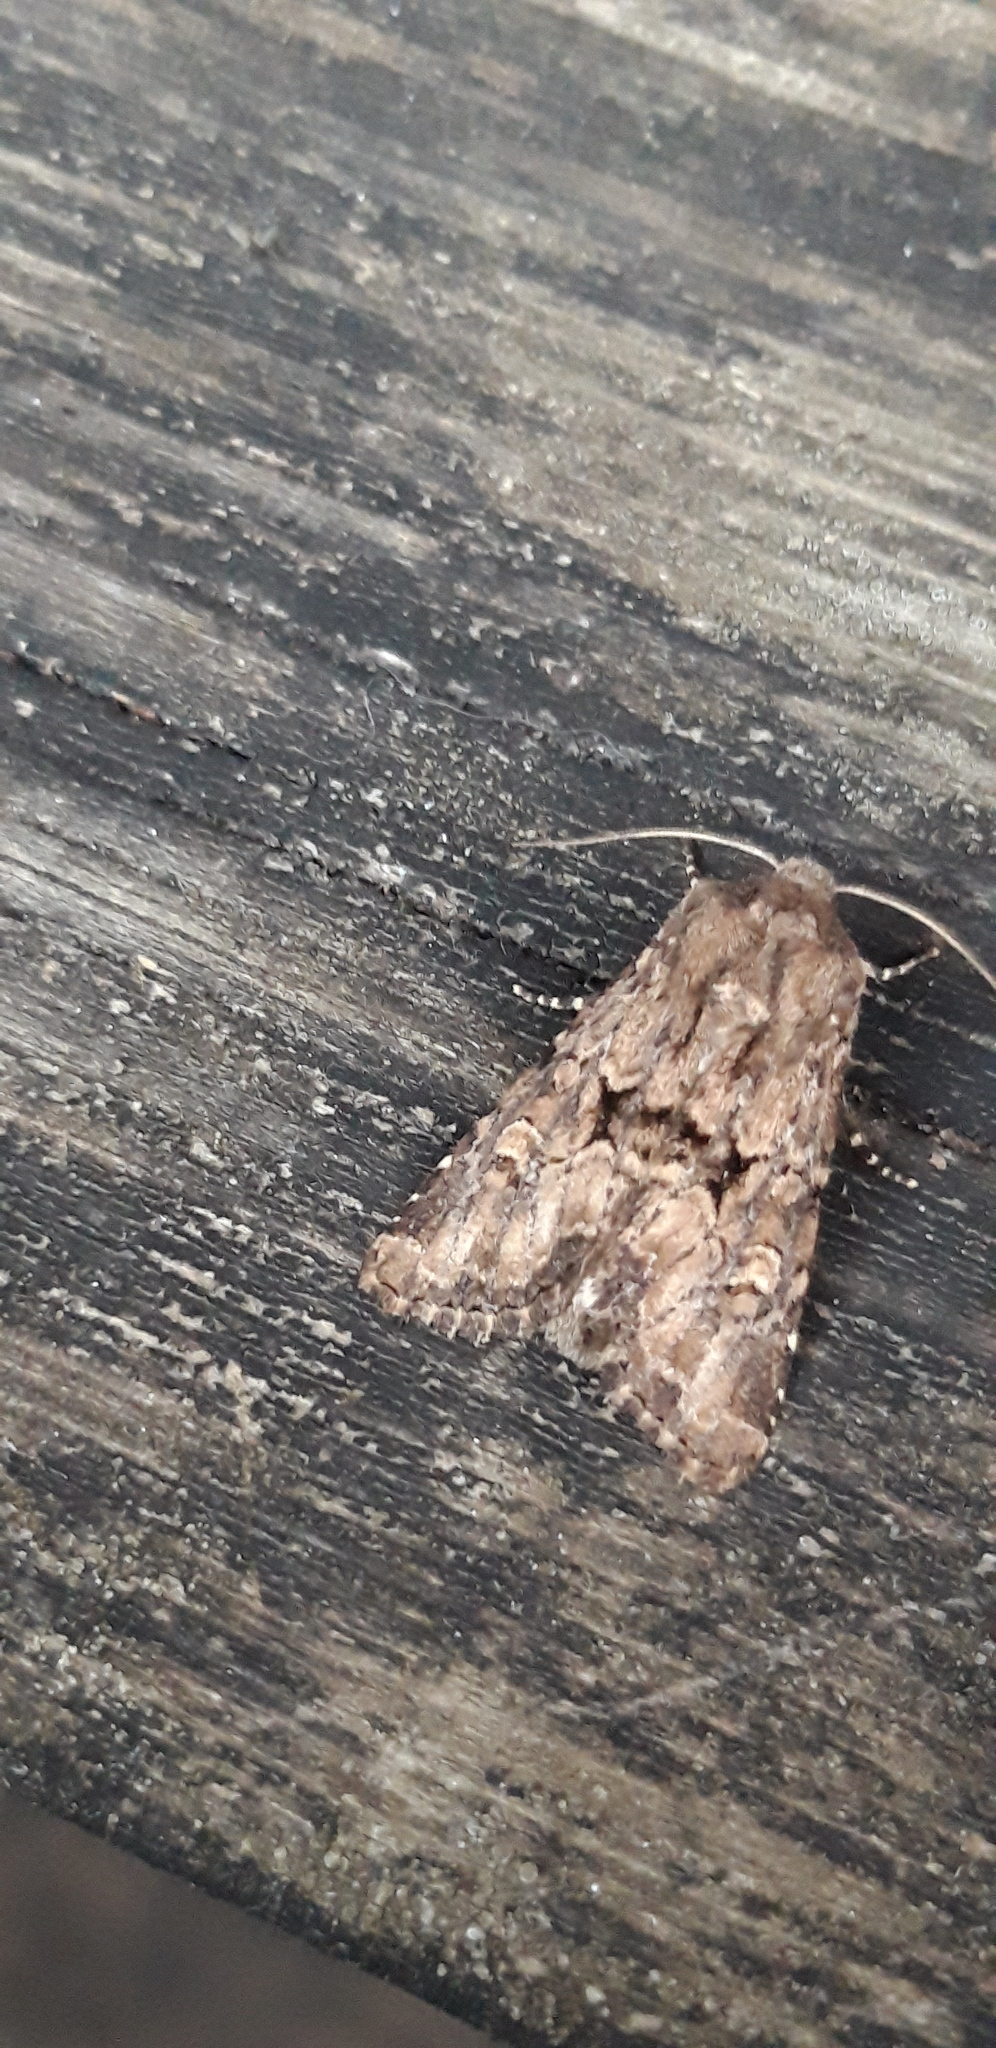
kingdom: Animalia
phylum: Arthropoda
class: Insecta
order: Lepidoptera
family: Noctuidae
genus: Luperina
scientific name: Luperina testacea
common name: Flounced rustic
